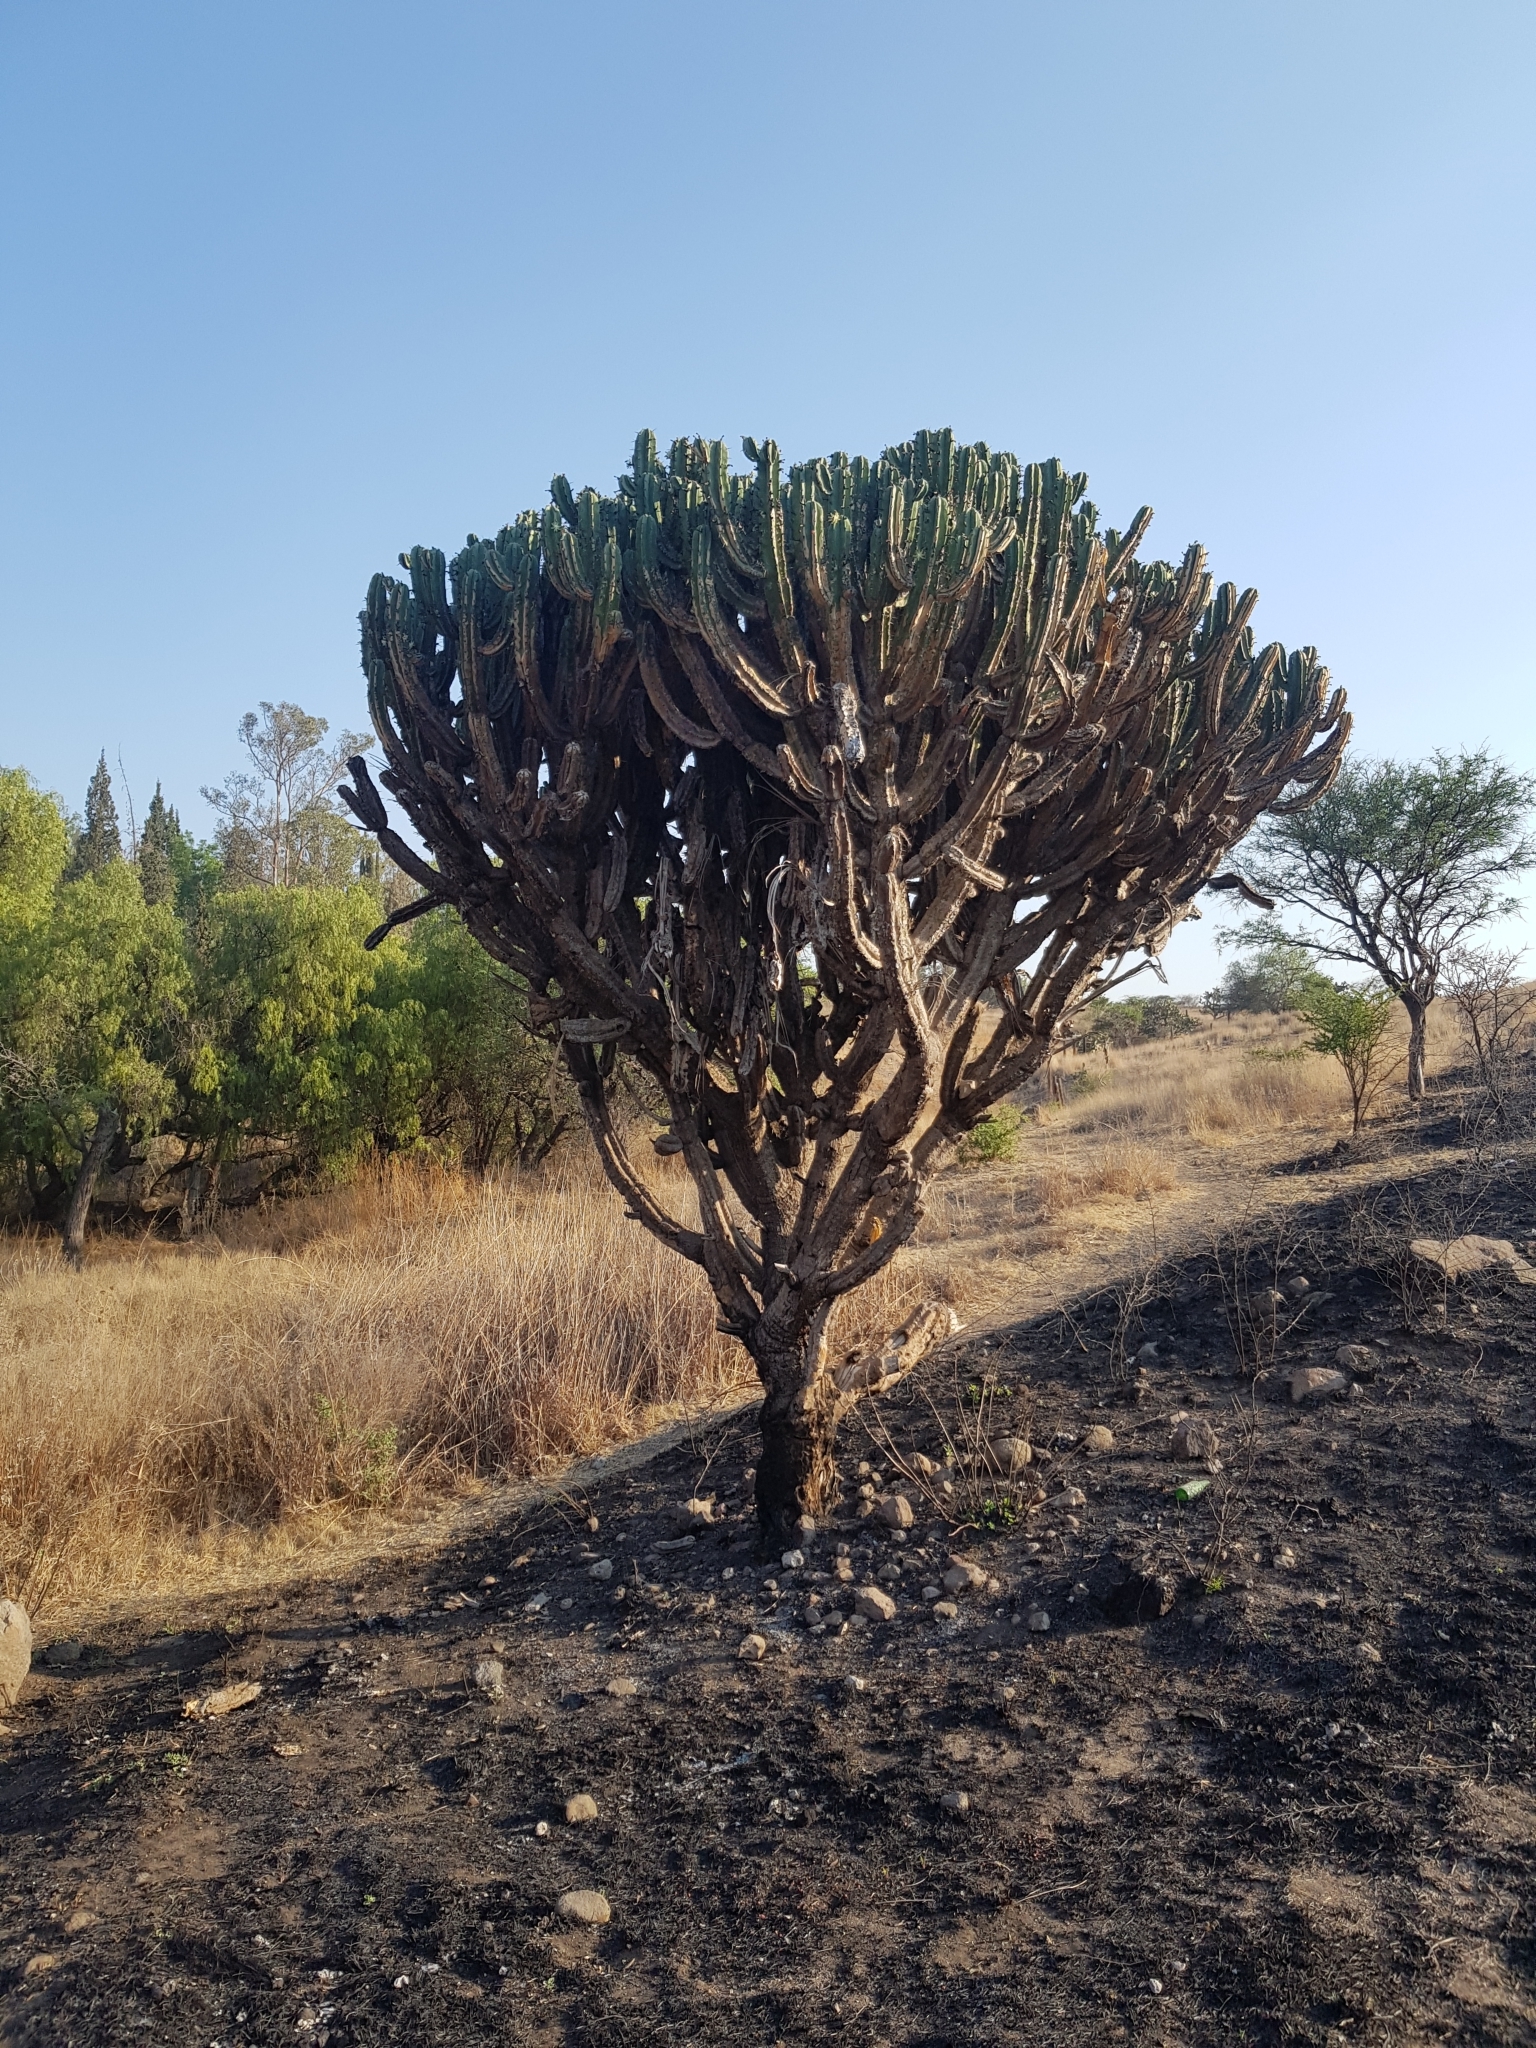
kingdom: Plantae
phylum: Tracheophyta
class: Magnoliopsida
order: Caryophyllales
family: Cactaceae
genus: Myrtillocactus
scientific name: Myrtillocactus geometrizans
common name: Bilberry cactus
